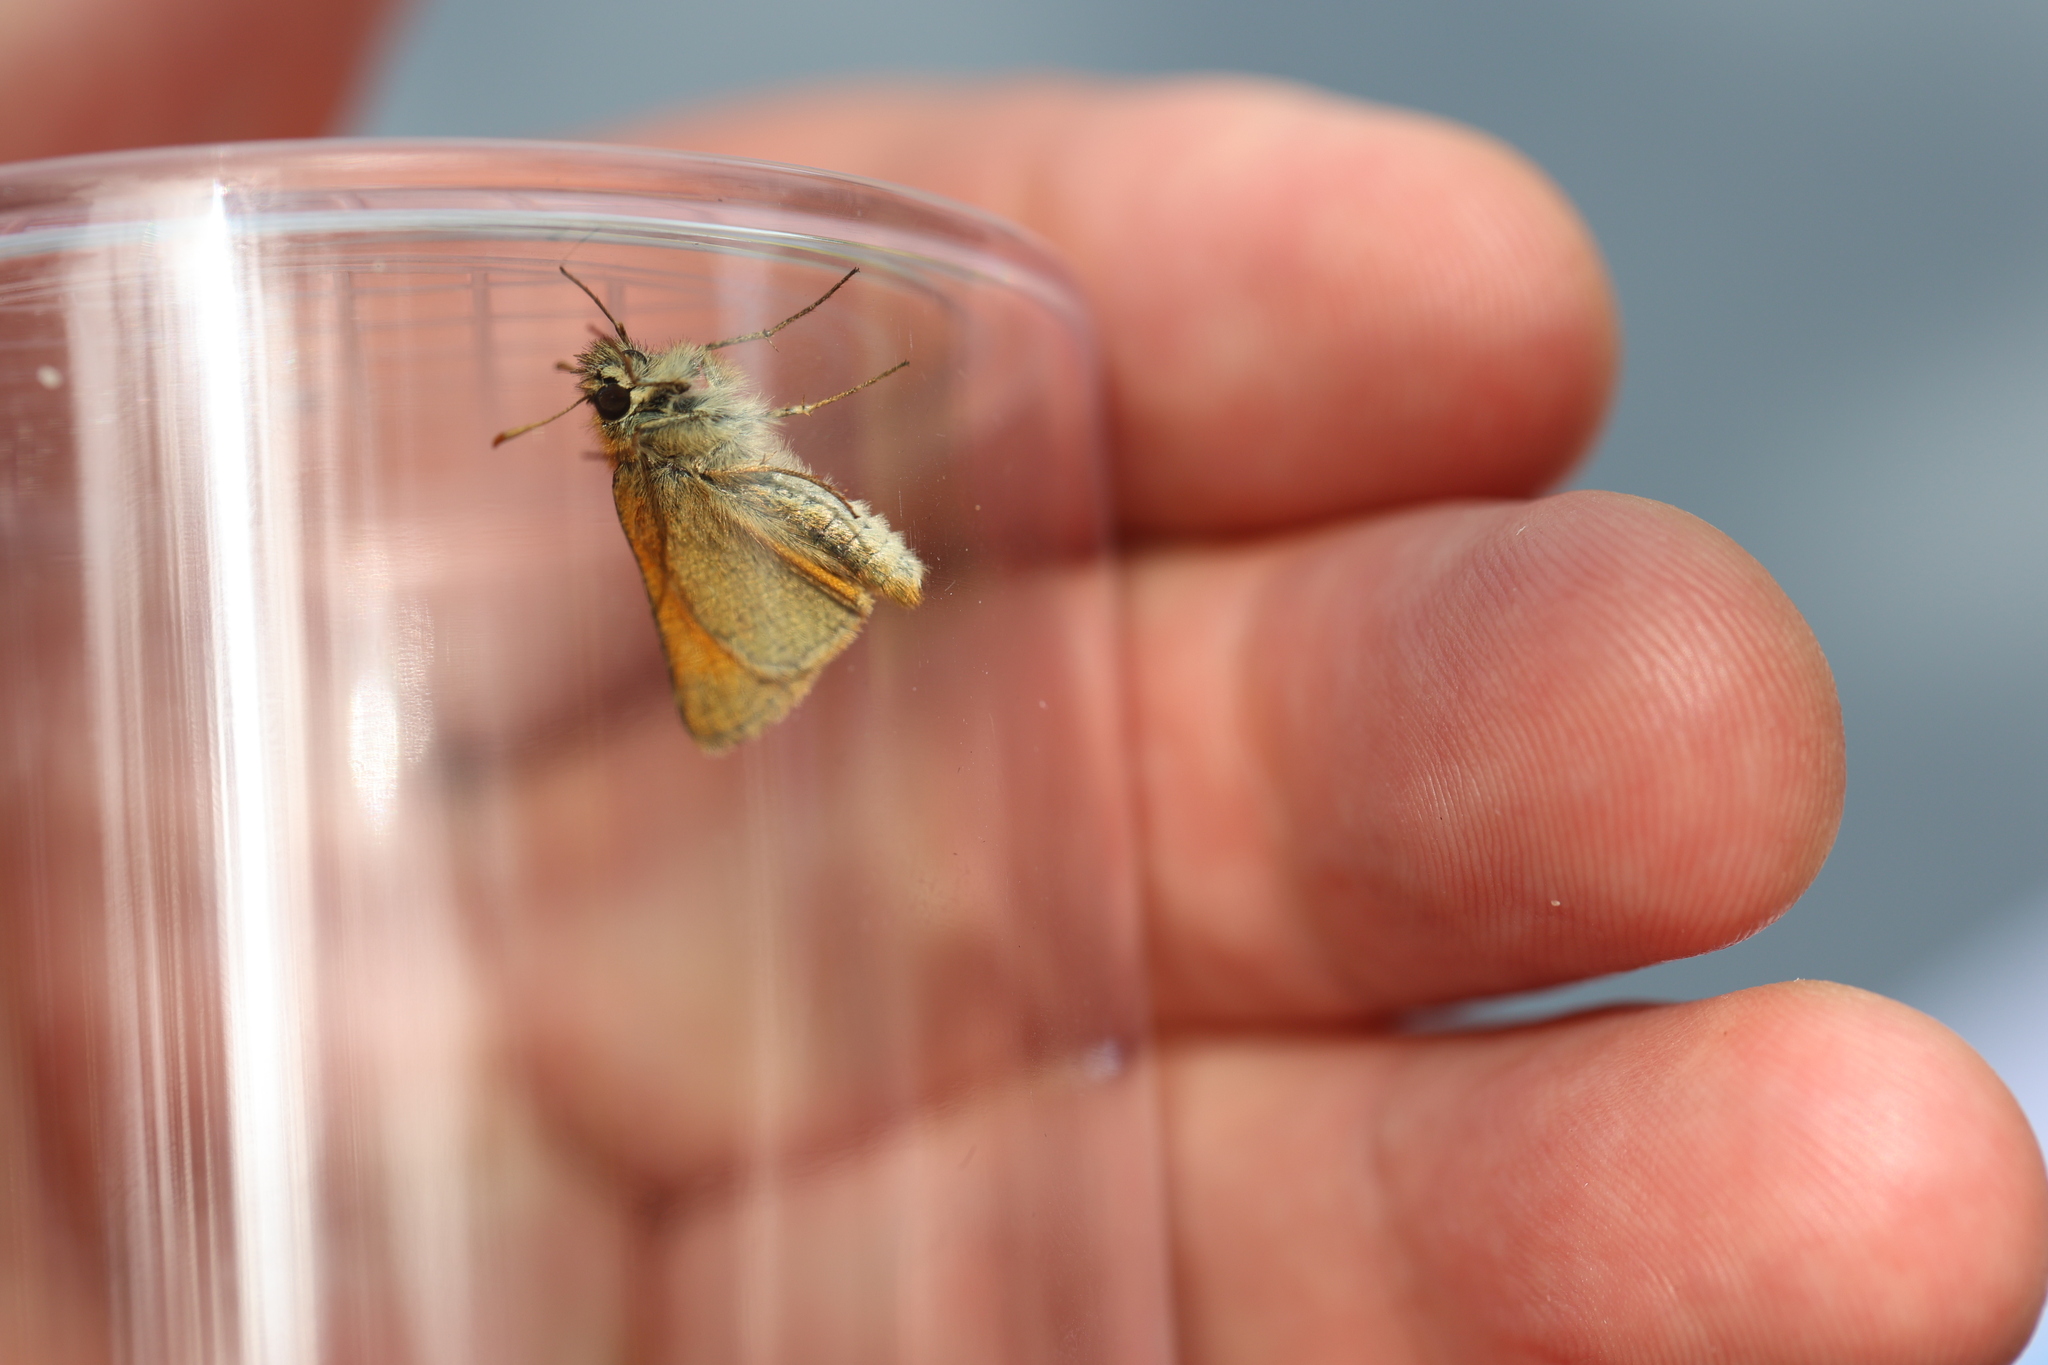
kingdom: Animalia
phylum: Arthropoda
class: Insecta
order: Lepidoptera
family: Hesperiidae
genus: Thymelicus
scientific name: Thymelicus sylvestris
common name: Small skipper
